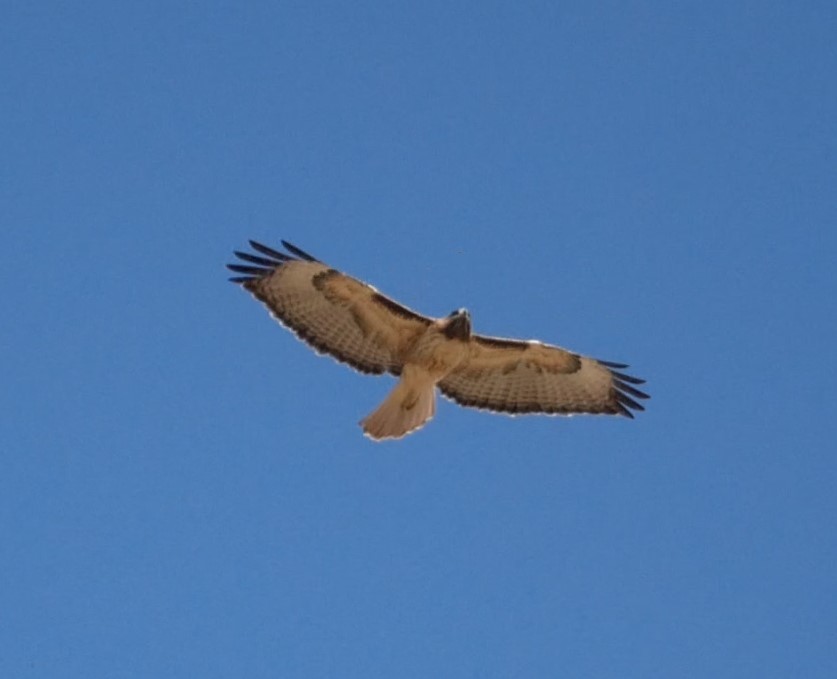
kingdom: Animalia
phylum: Chordata
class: Aves
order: Accipitriformes
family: Accipitridae
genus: Buteo
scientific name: Buteo jamaicensis
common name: Red-tailed hawk
